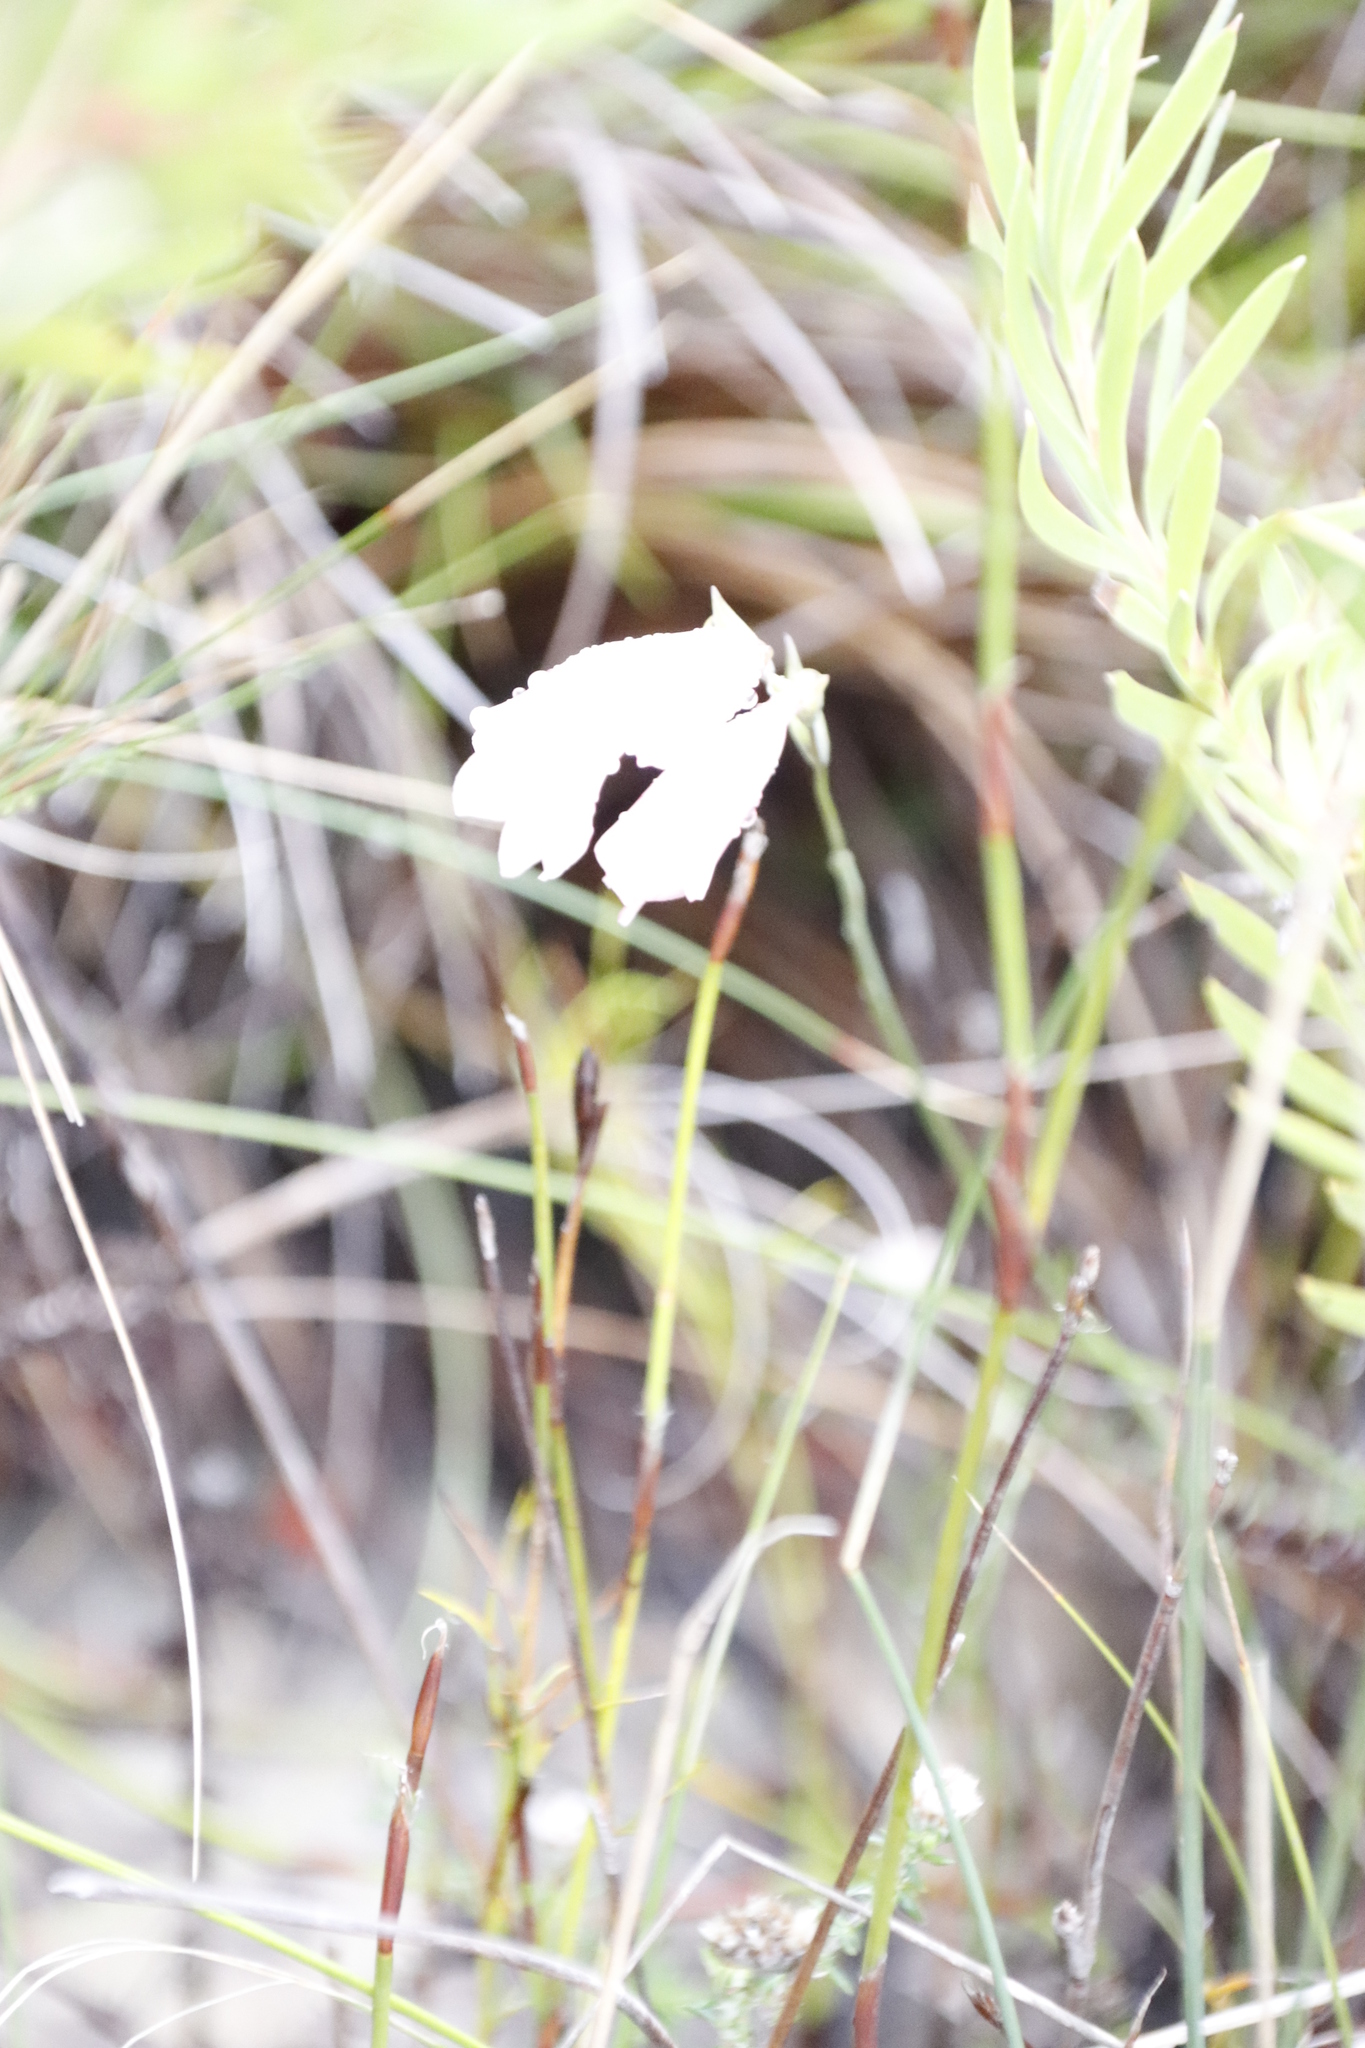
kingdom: Plantae
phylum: Tracheophyta
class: Liliopsida
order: Asparagales
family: Iridaceae
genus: Gladiolus
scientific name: Gladiolus brevifolius
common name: March pypie
